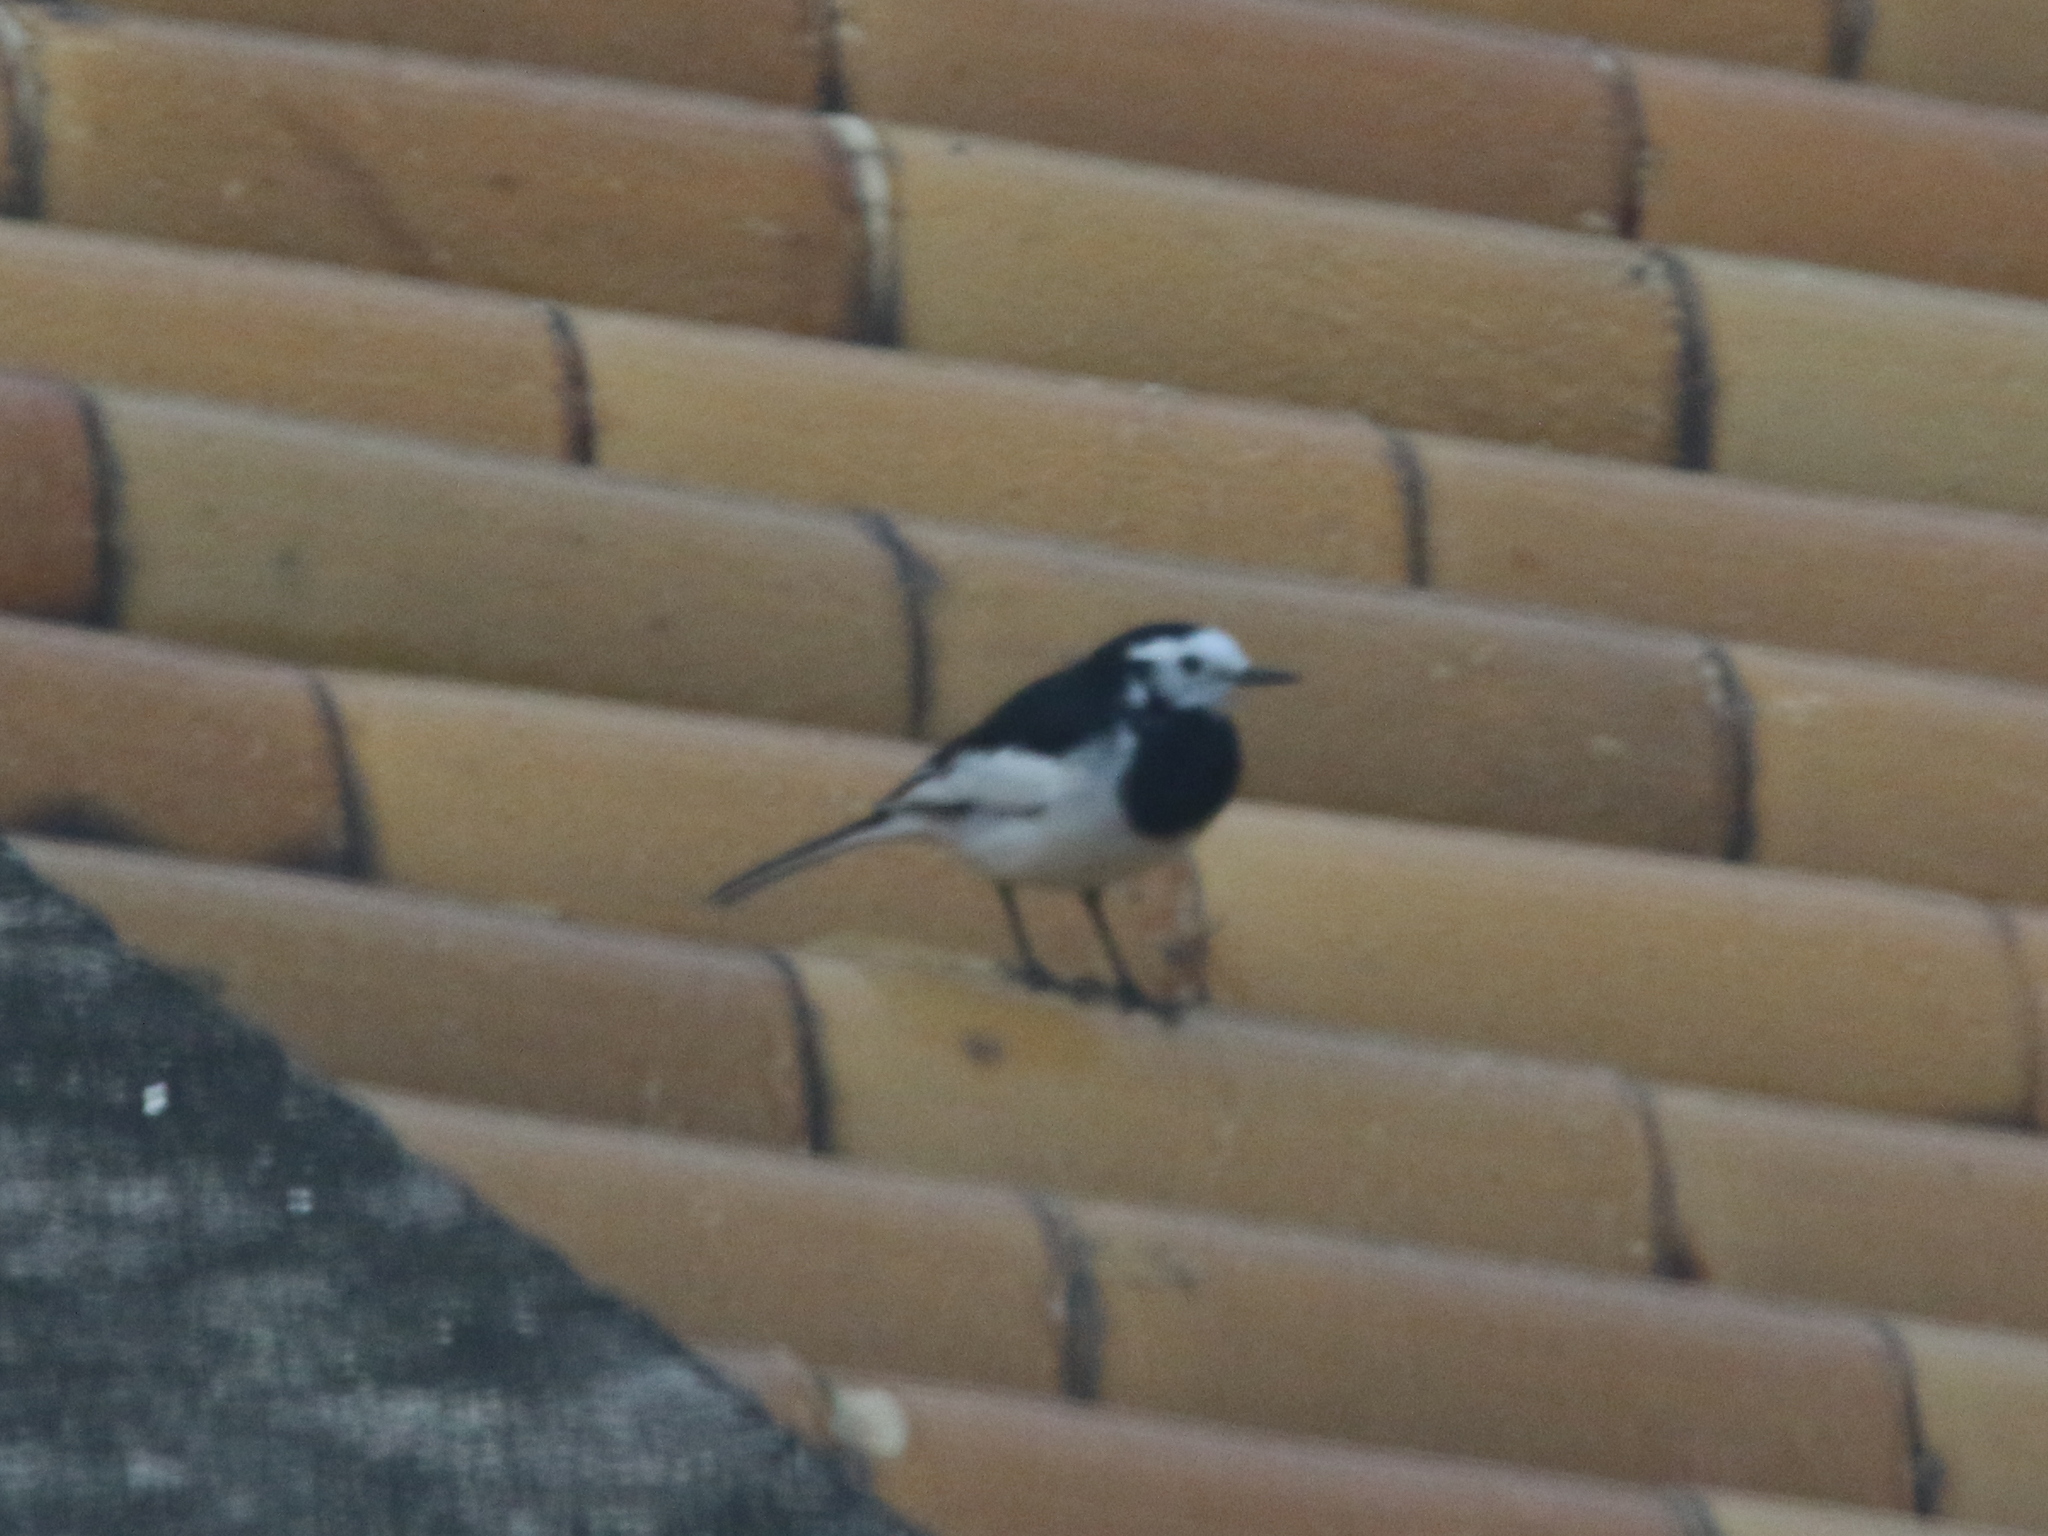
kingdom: Animalia
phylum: Chordata
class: Aves
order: Passeriformes
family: Motacillidae
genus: Motacilla
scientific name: Motacilla alba
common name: White wagtail
